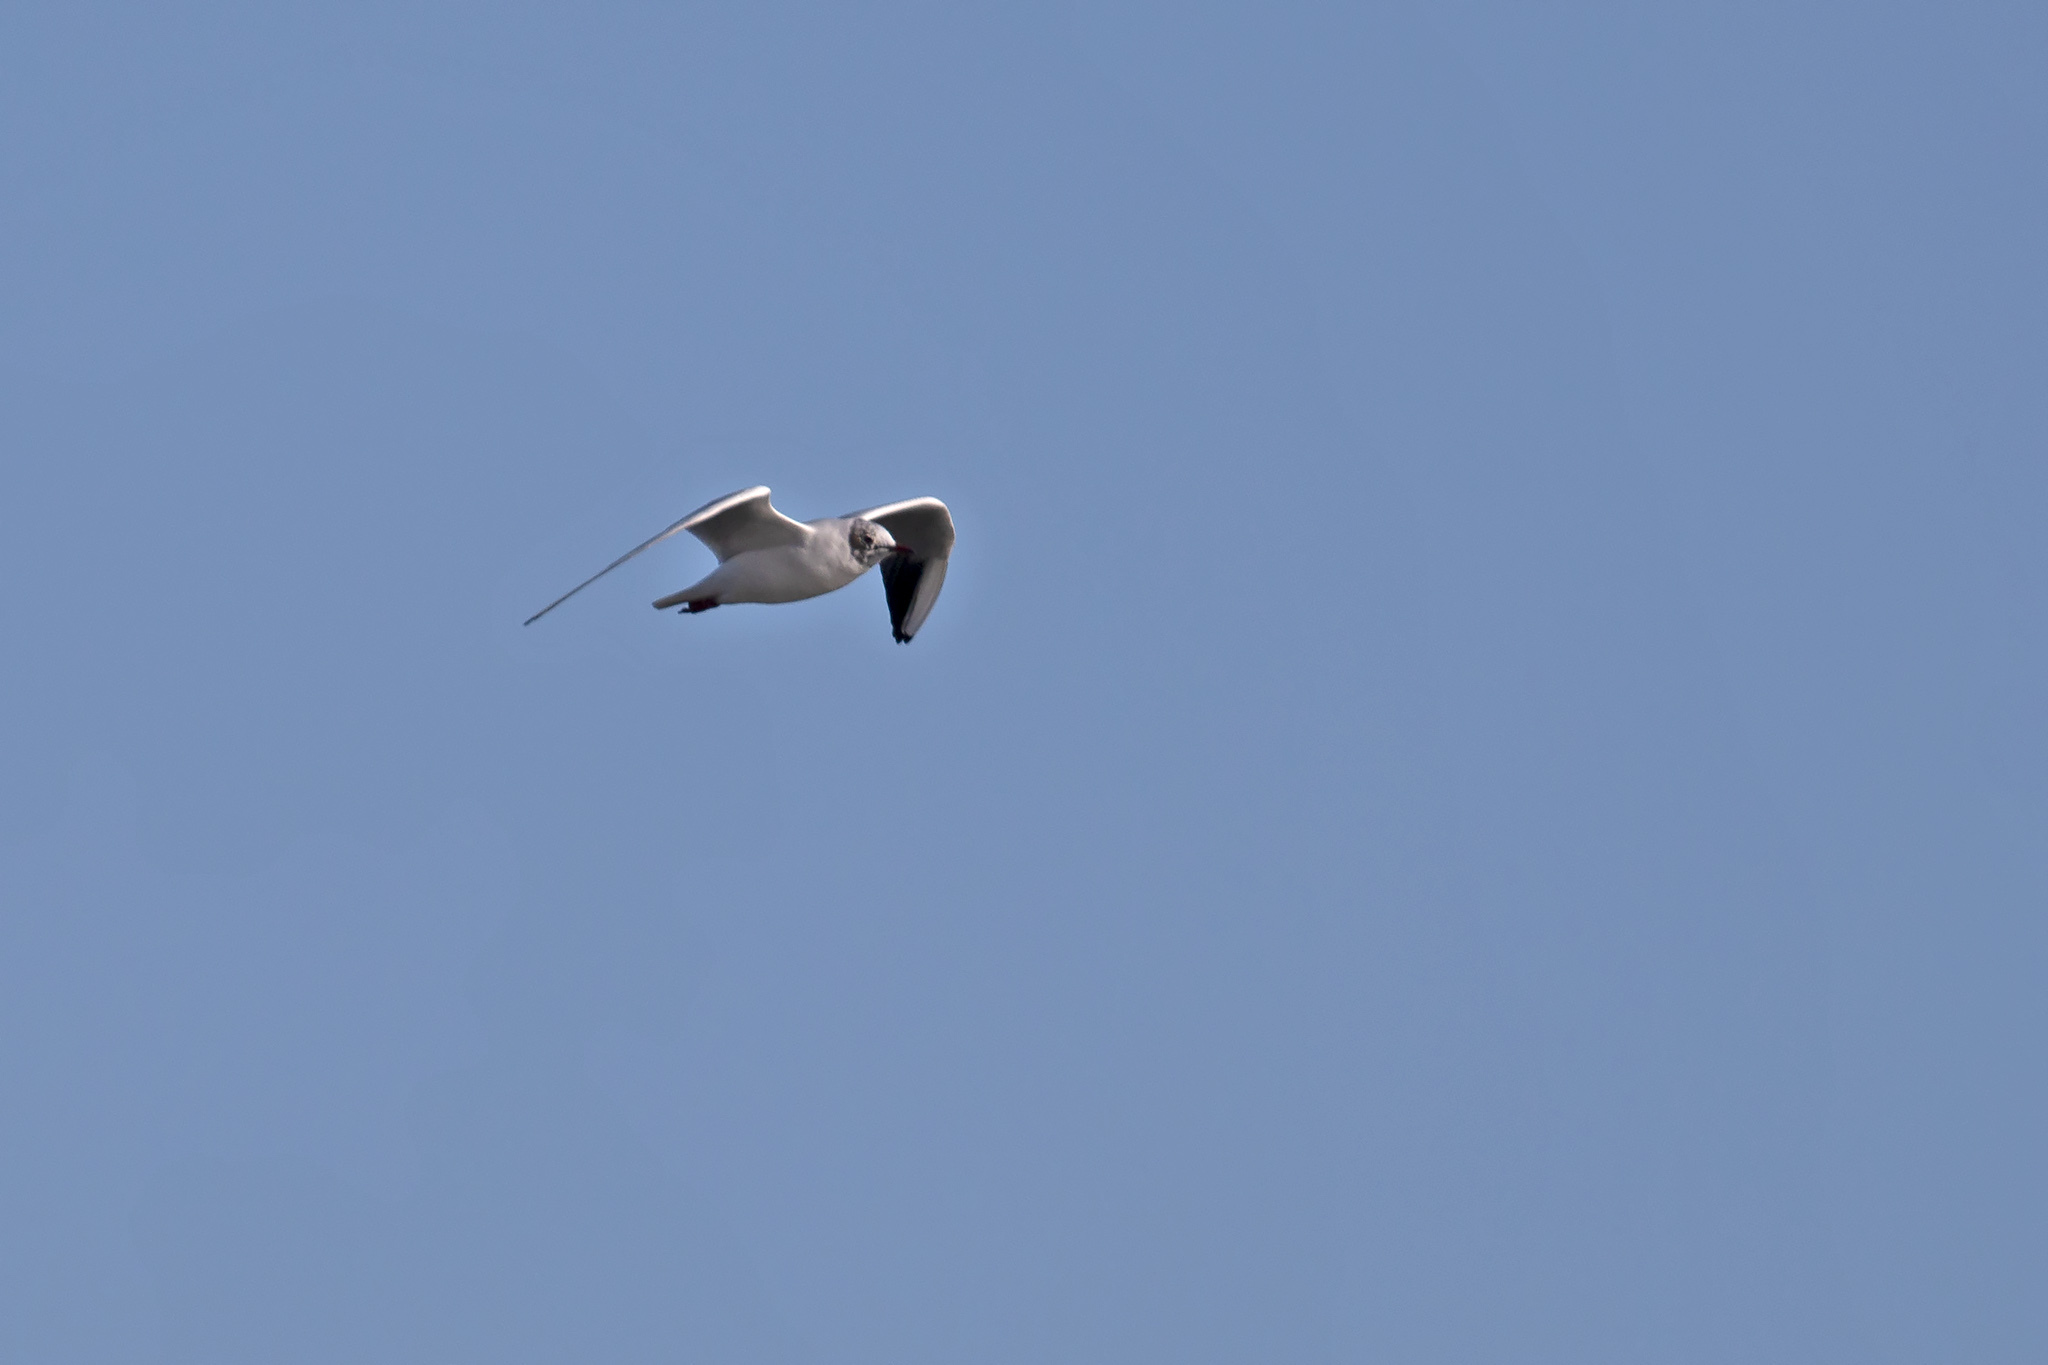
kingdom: Animalia
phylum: Chordata
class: Aves
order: Charadriiformes
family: Laridae
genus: Chroicocephalus
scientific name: Chroicocephalus ridibundus
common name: Black-headed gull
